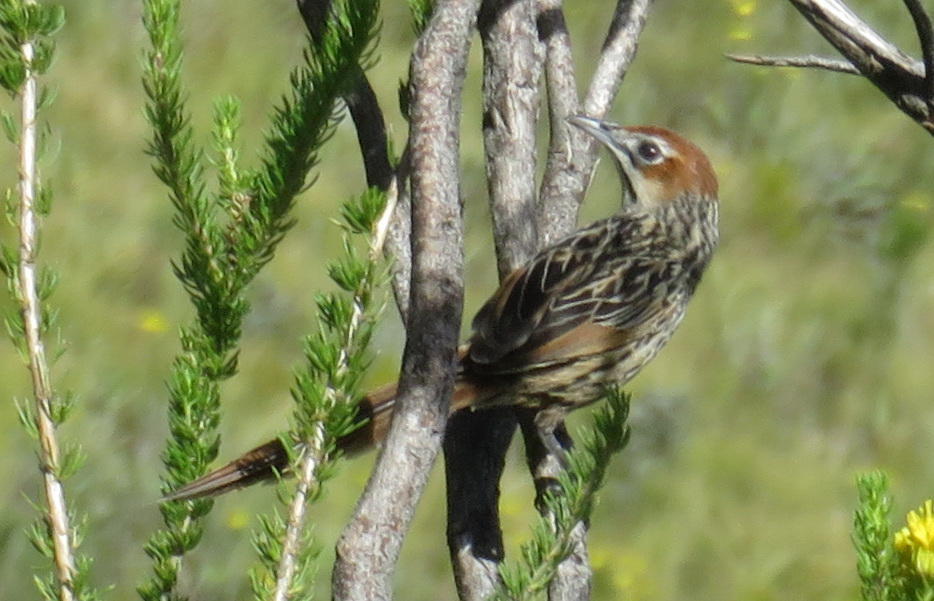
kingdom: Animalia
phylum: Chordata
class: Aves
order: Passeriformes
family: Macrosphenidae
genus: Sphenoeacus
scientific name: Sphenoeacus afer
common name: Cape grassbird
